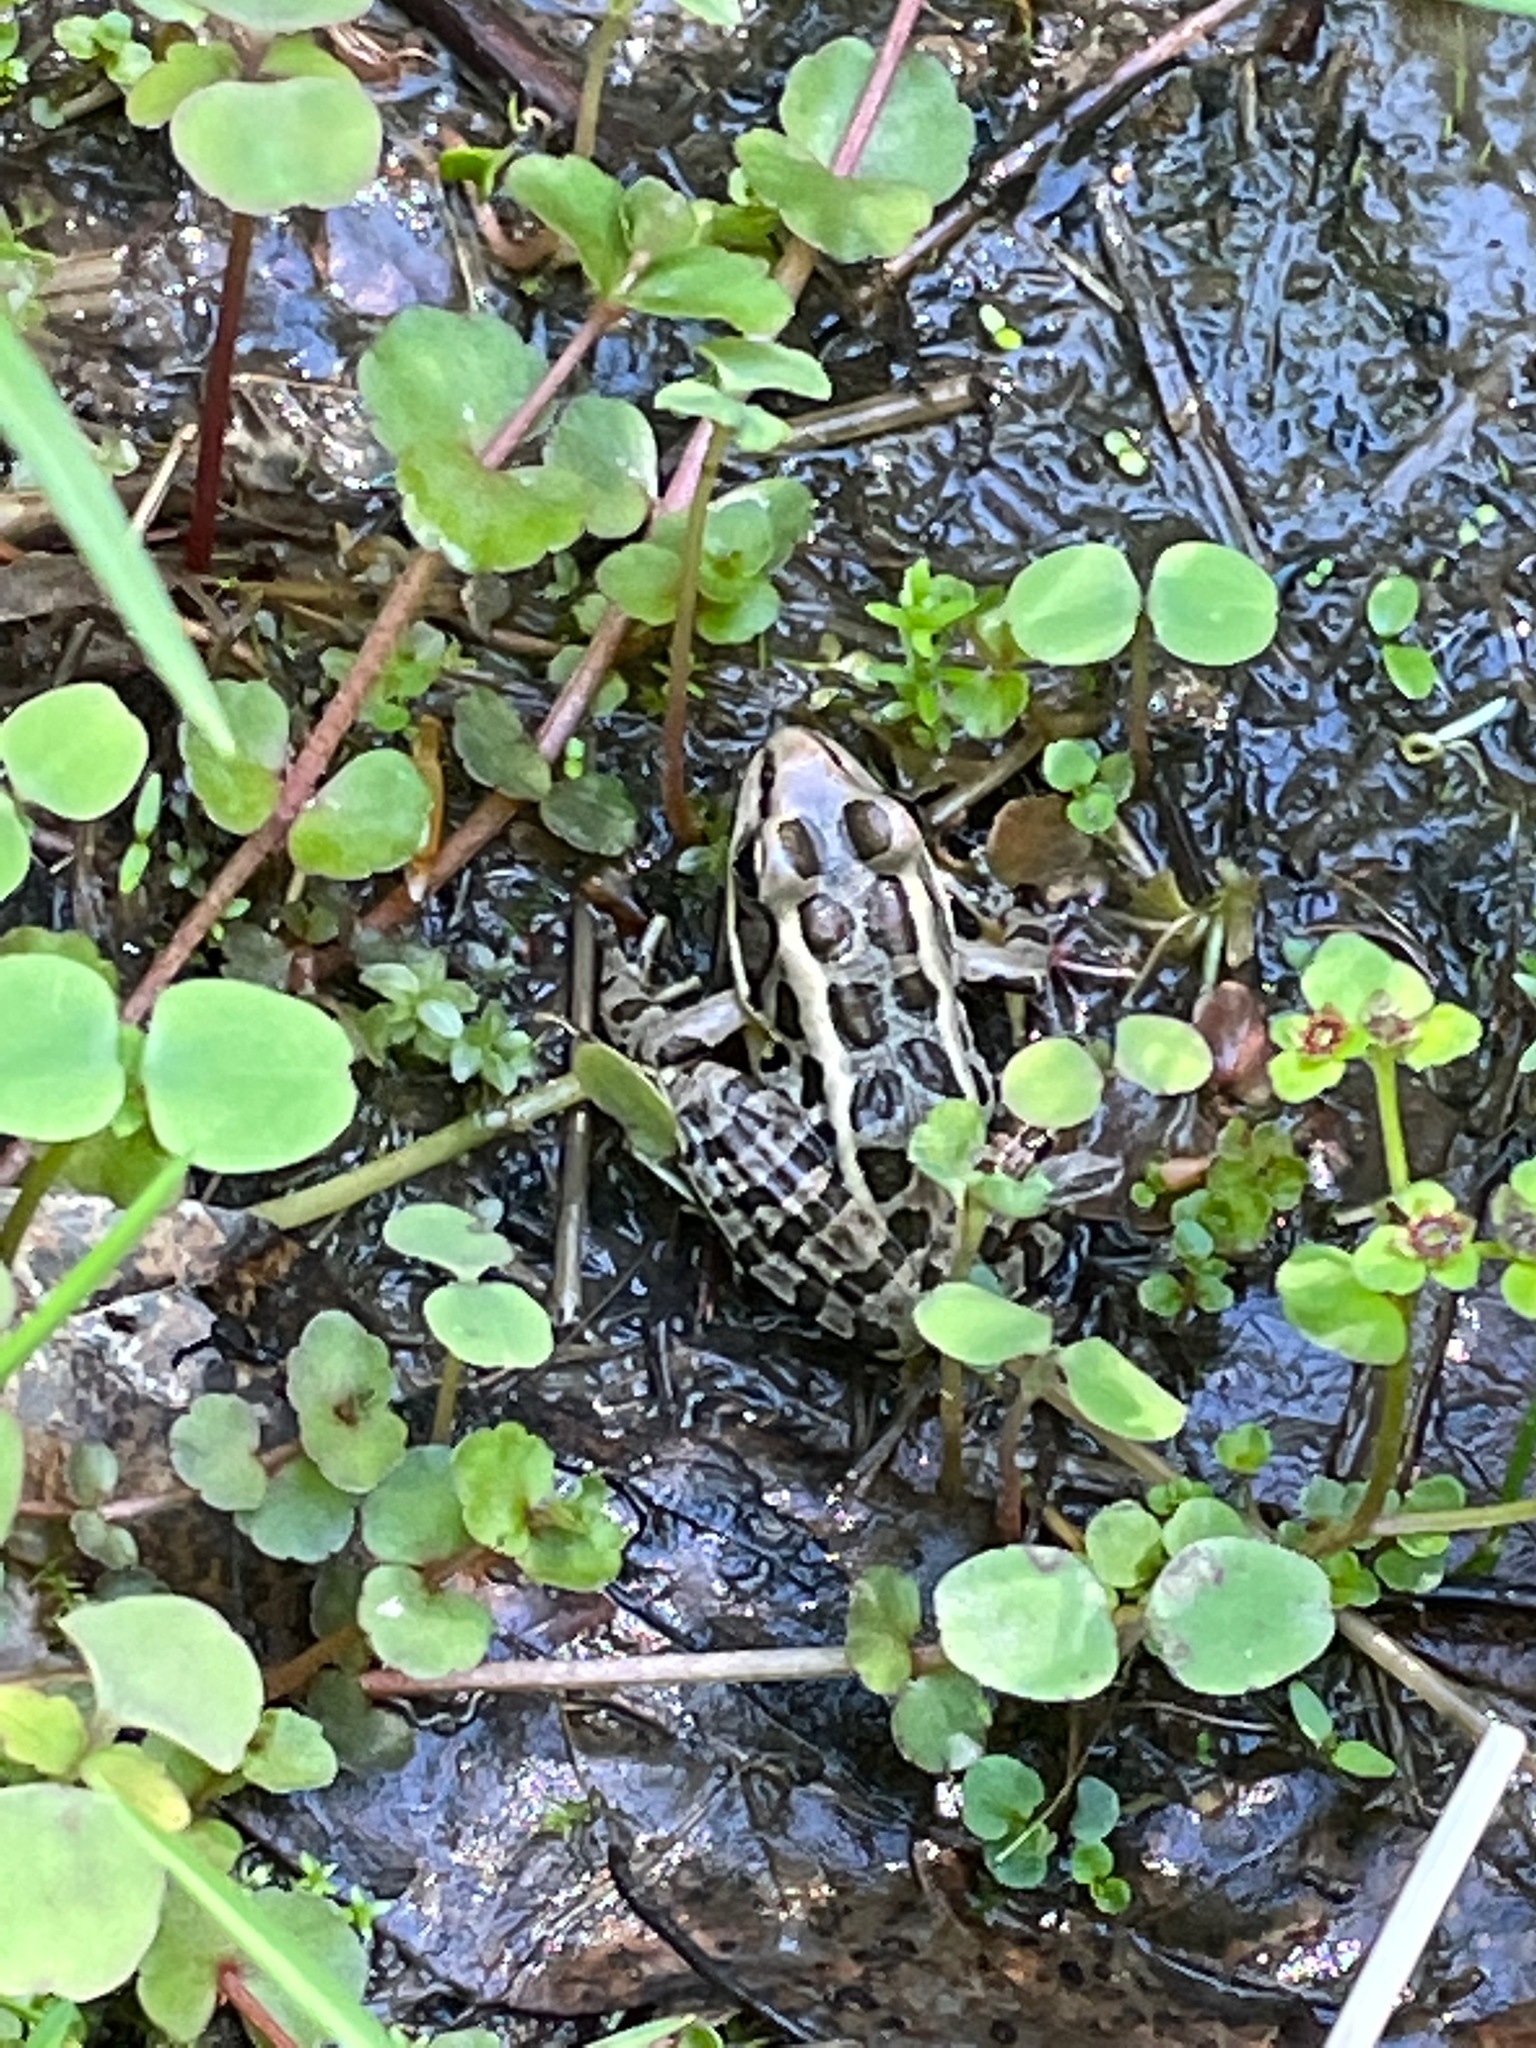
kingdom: Animalia
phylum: Chordata
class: Amphibia
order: Anura
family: Ranidae
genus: Lithobates
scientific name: Lithobates palustris
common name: Pickerel frog
